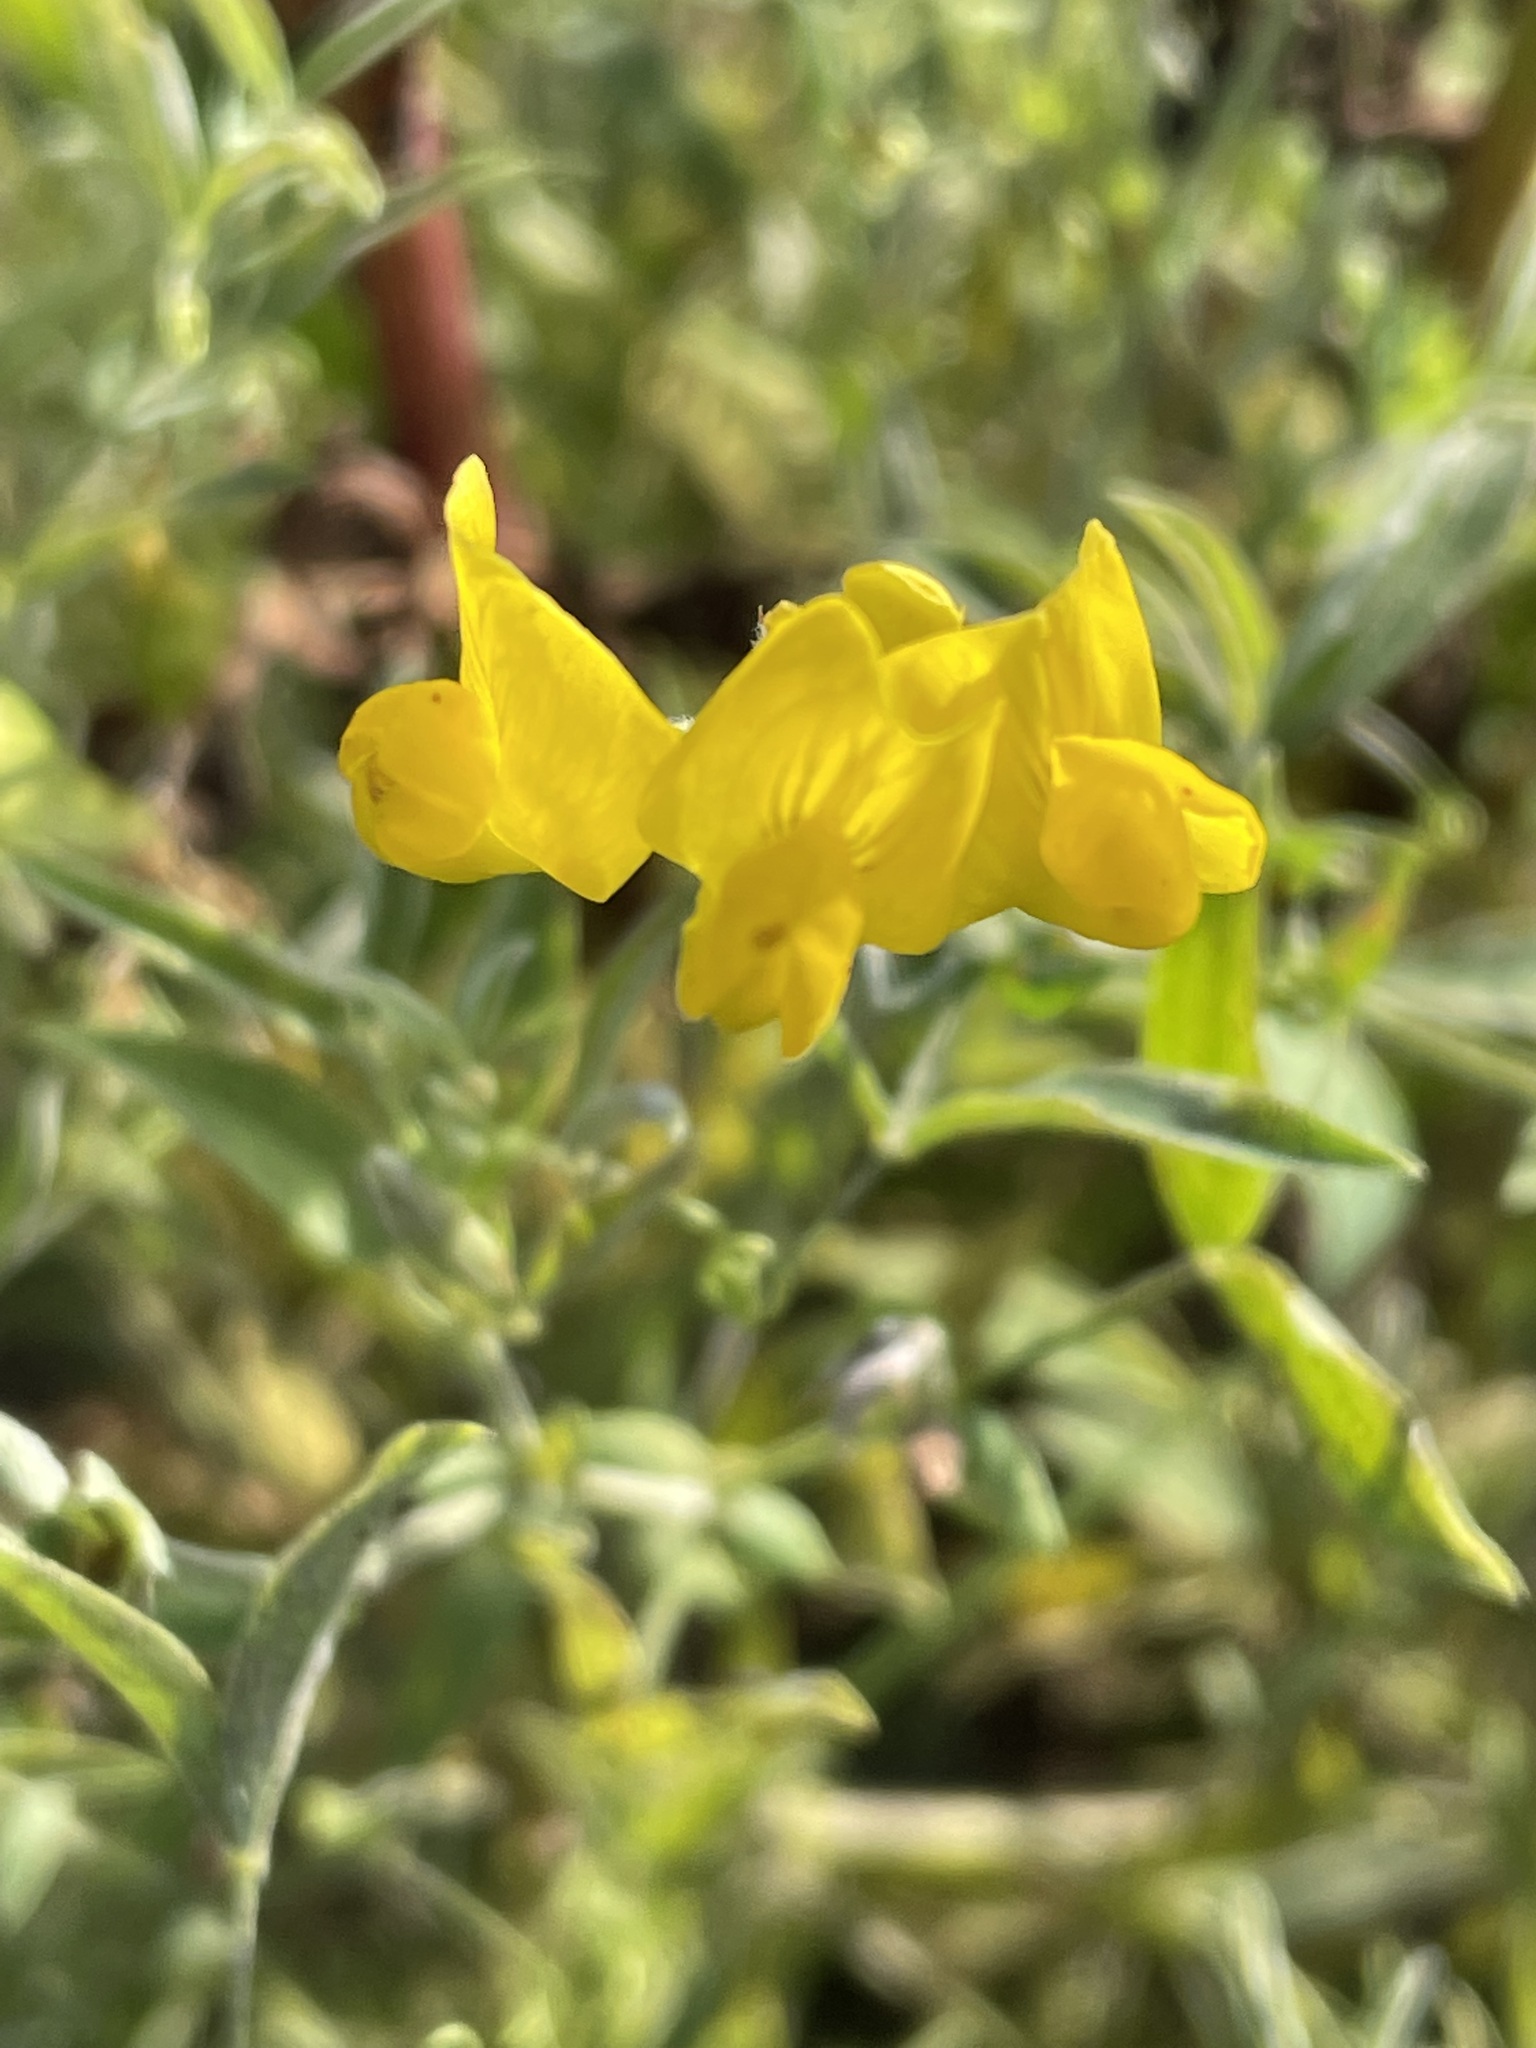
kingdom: Plantae
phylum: Tracheophyta
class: Magnoliopsida
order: Fabales
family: Fabaceae
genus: Lathyrus
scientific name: Lathyrus pratensis
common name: Meadow vetchling
